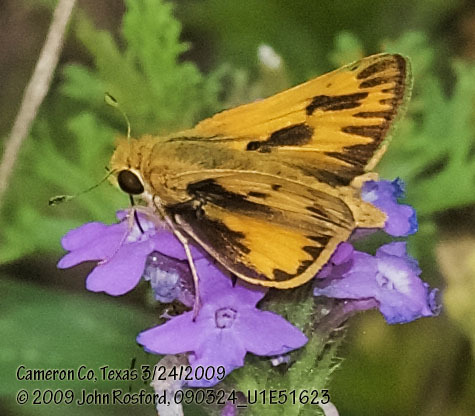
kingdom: Animalia
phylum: Arthropoda
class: Insecta
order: Lepidoptera
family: Hesperiidae
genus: Hylephila
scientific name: Hylephila phyleus
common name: Fiery skipper
